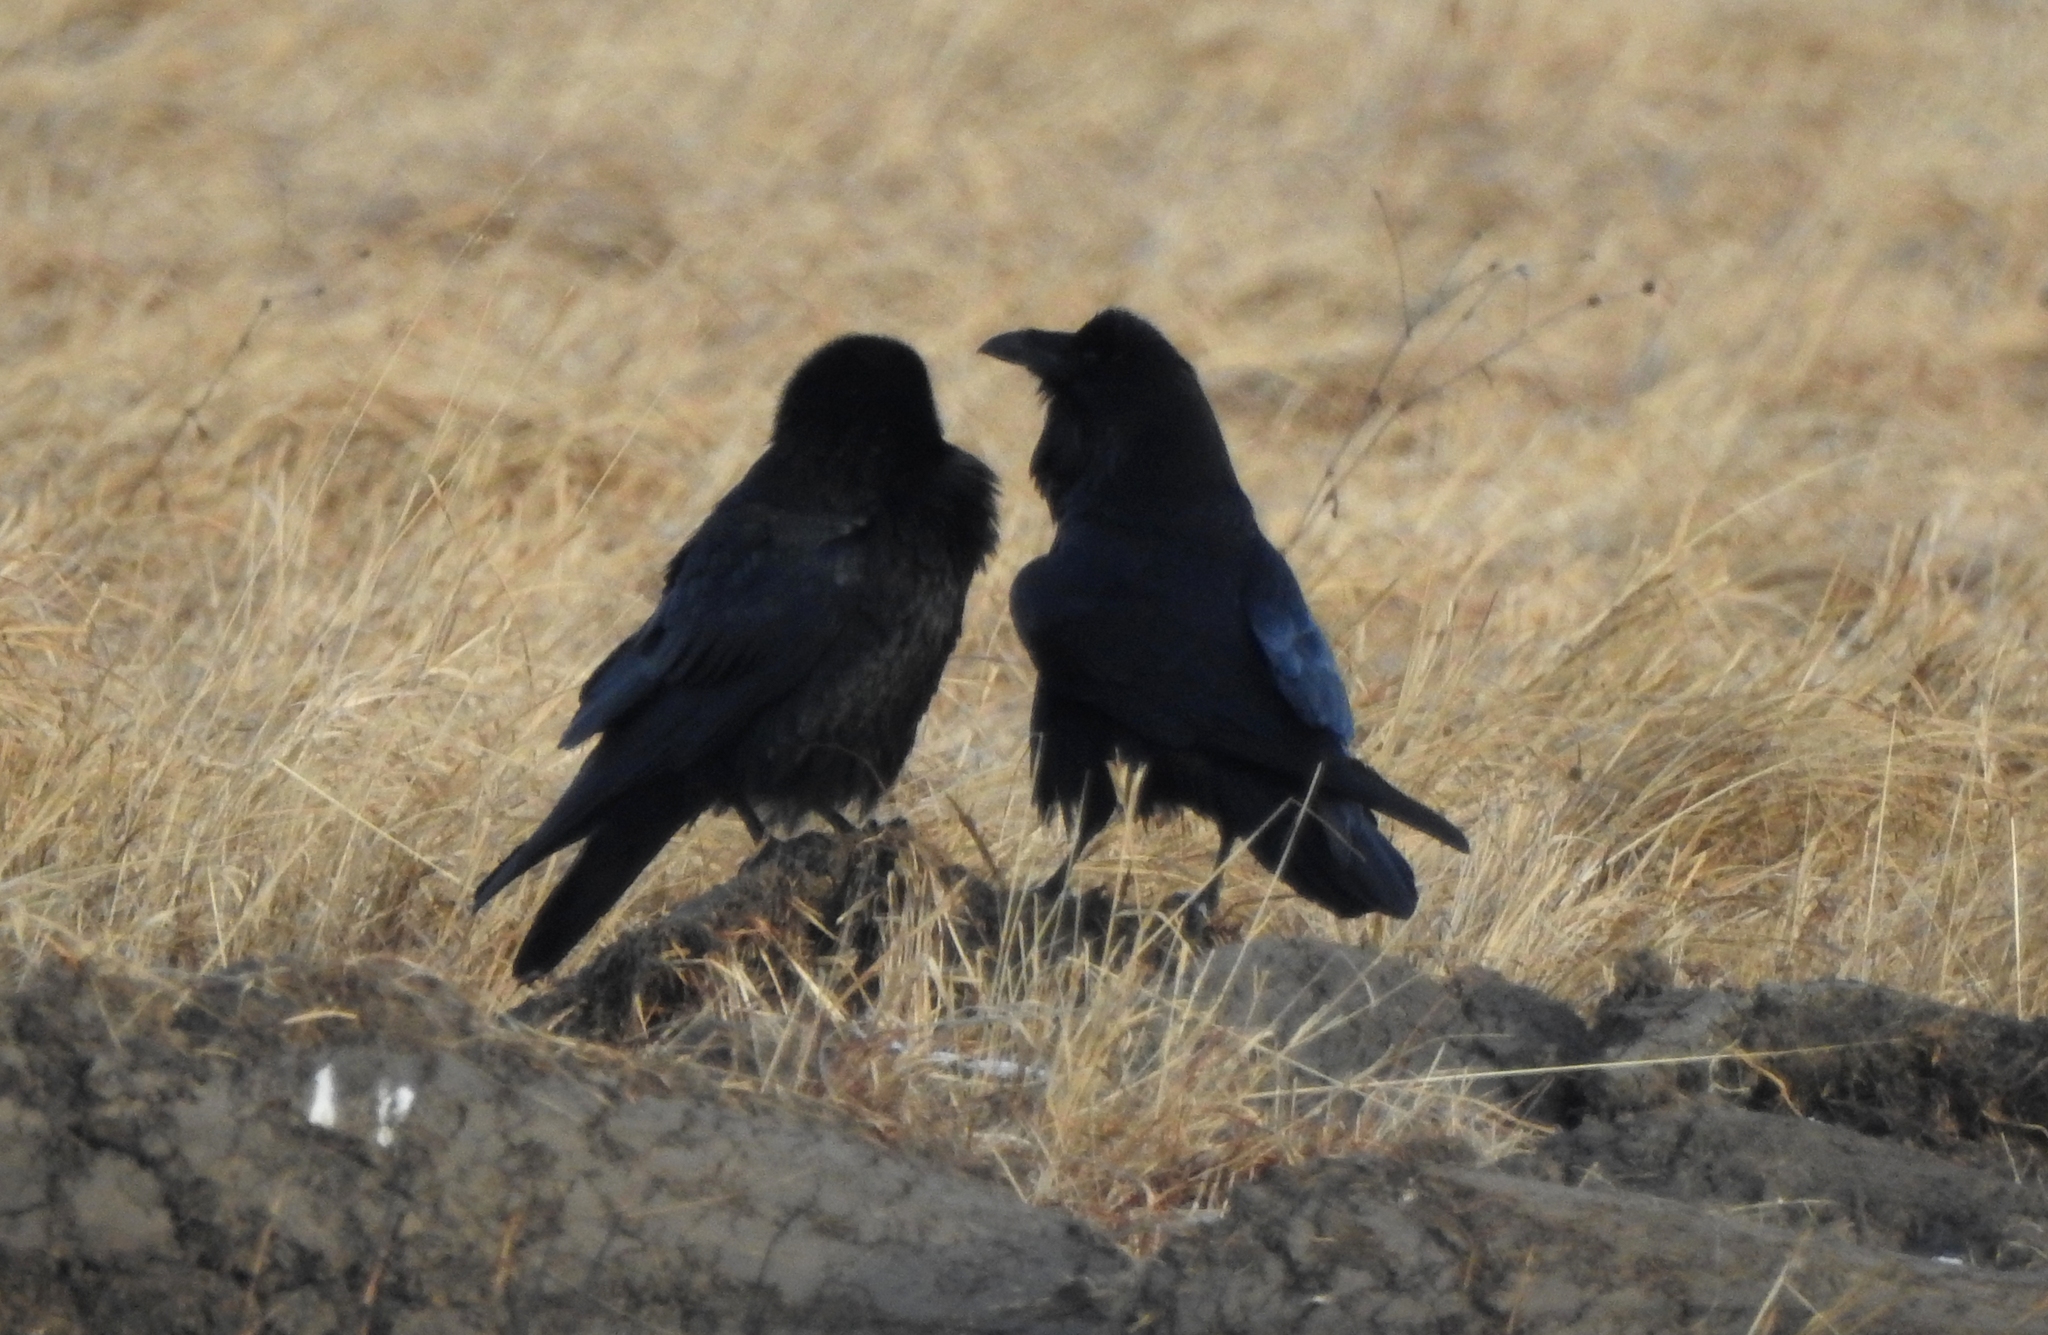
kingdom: Animalia
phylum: Chordata
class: Aves
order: Passeriformes
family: Corvidae
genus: Corvus
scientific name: Corvus corax
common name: Common raven
